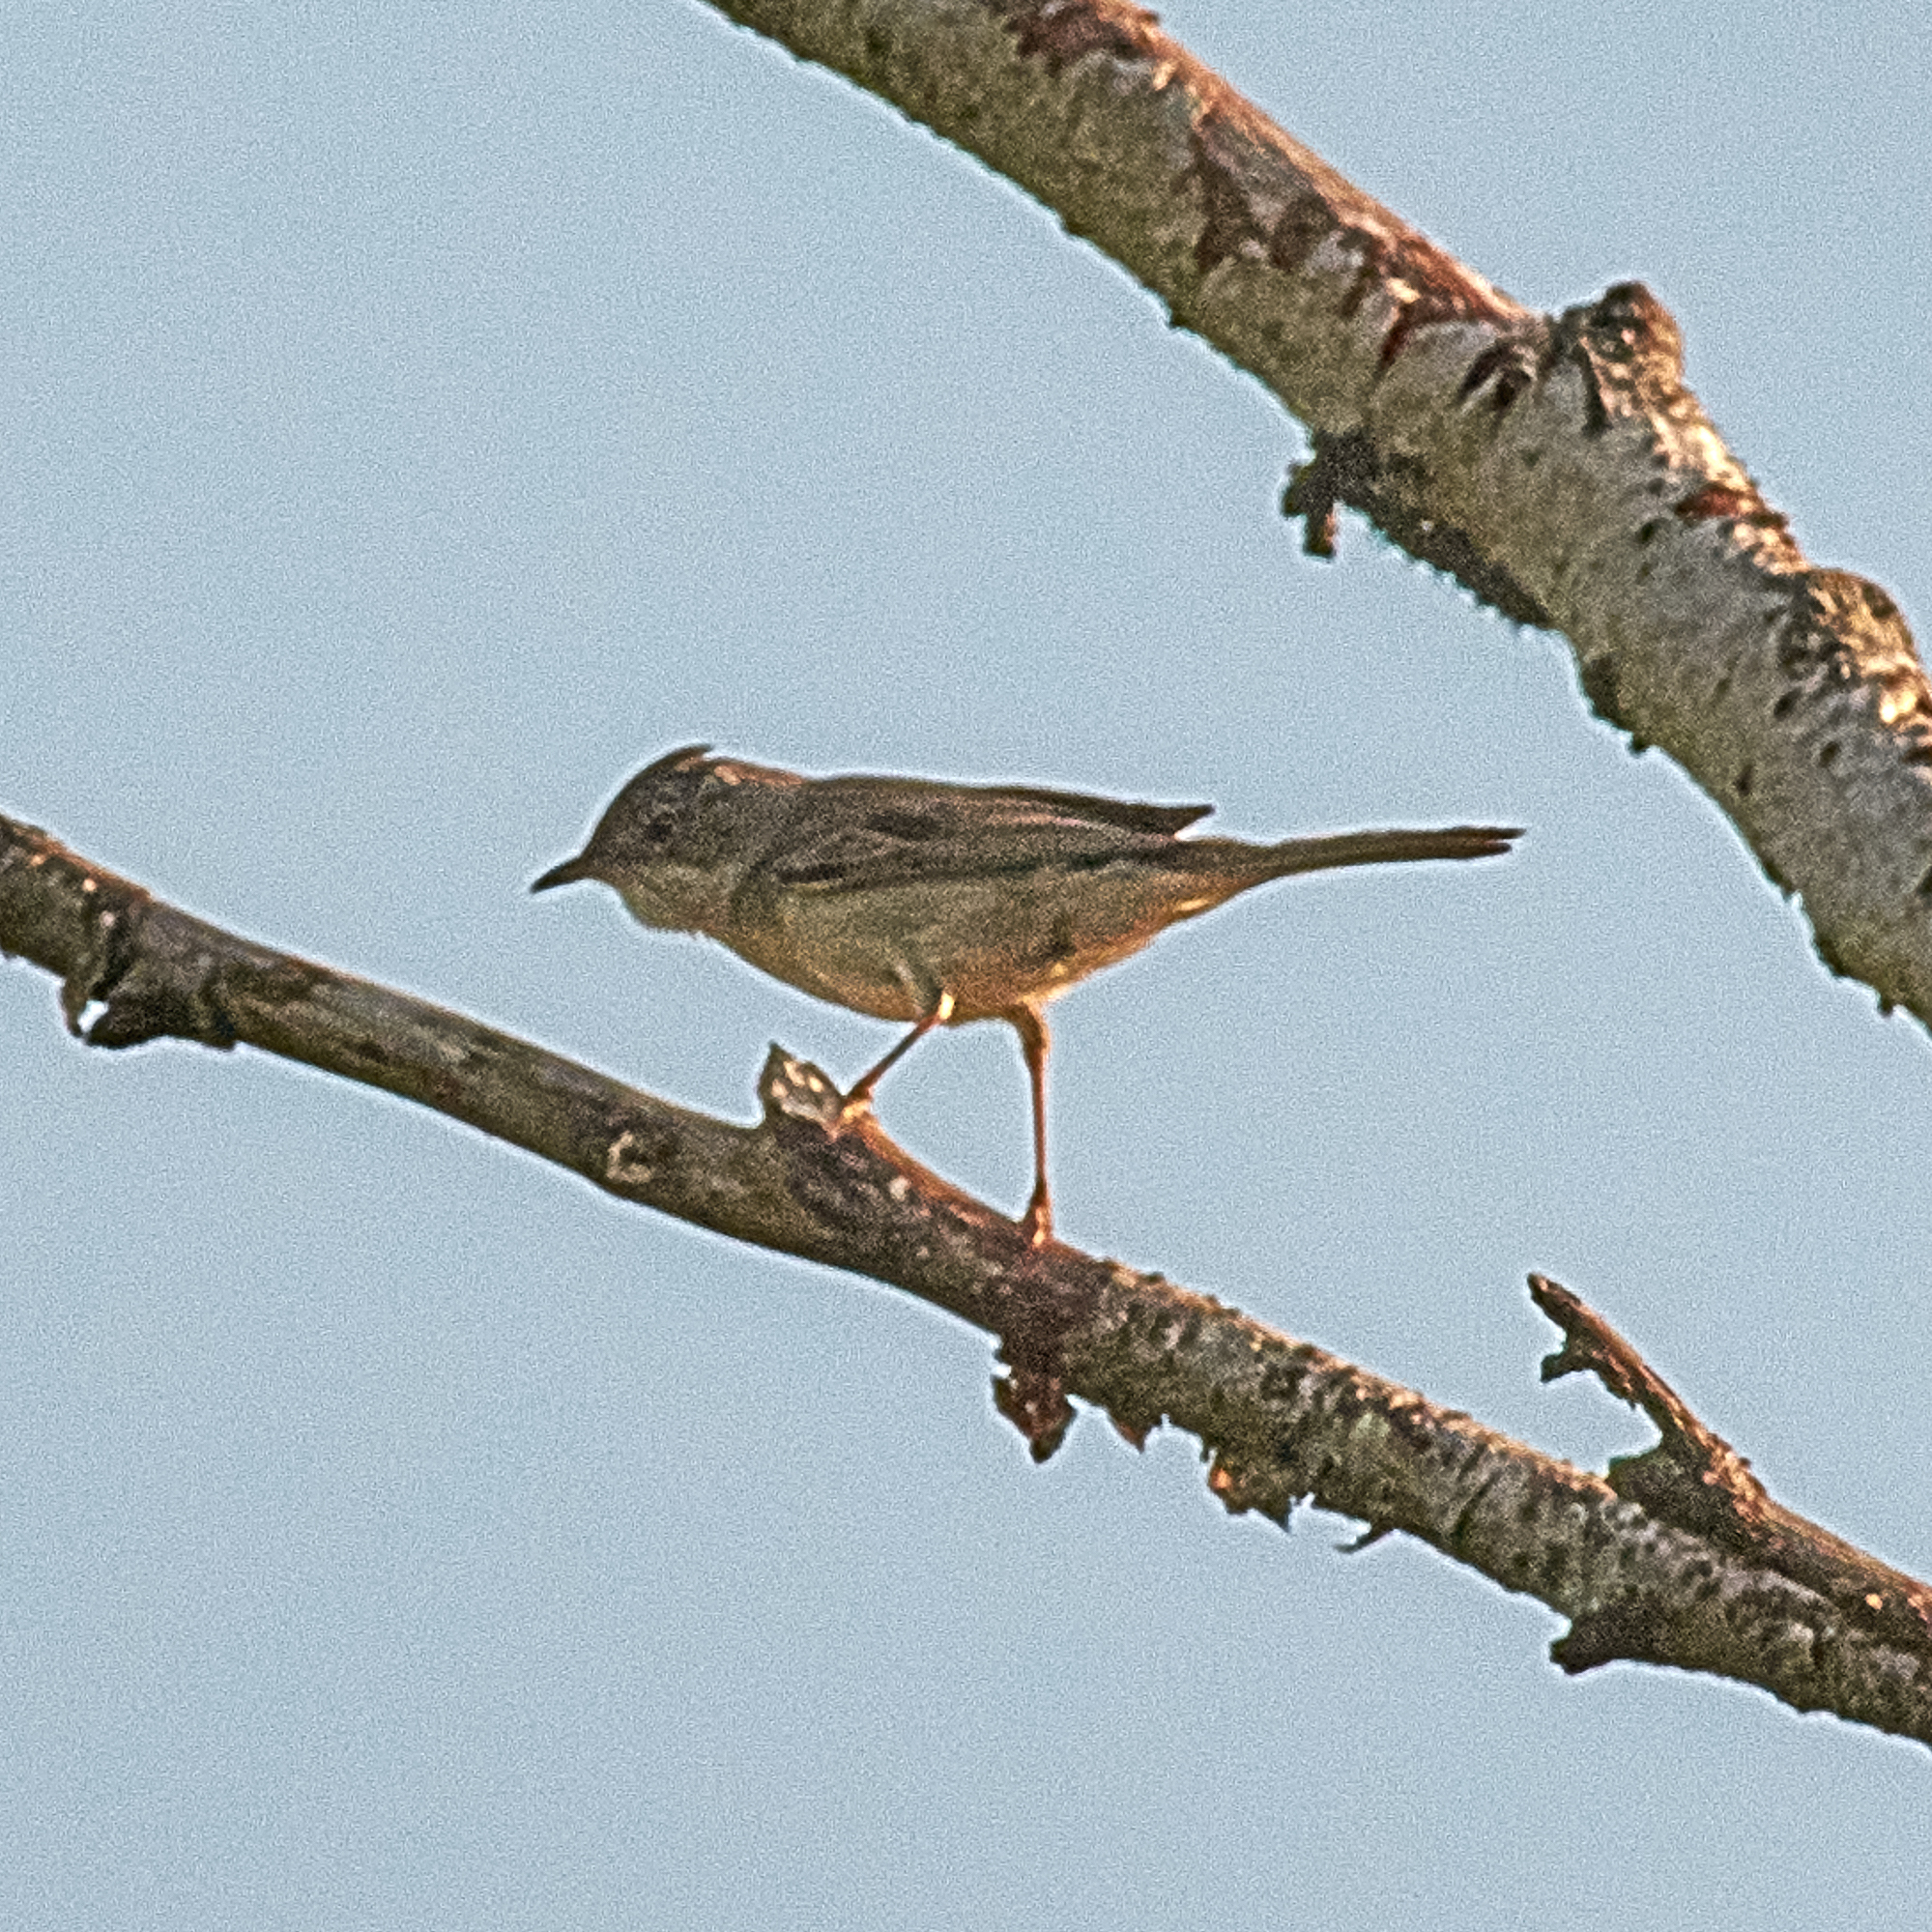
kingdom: Animalia
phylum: Chordata
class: Aves
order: Passeriformes
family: Sylviidae
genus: Sylvia
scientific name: Sylvia communis
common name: Common whitethroat
